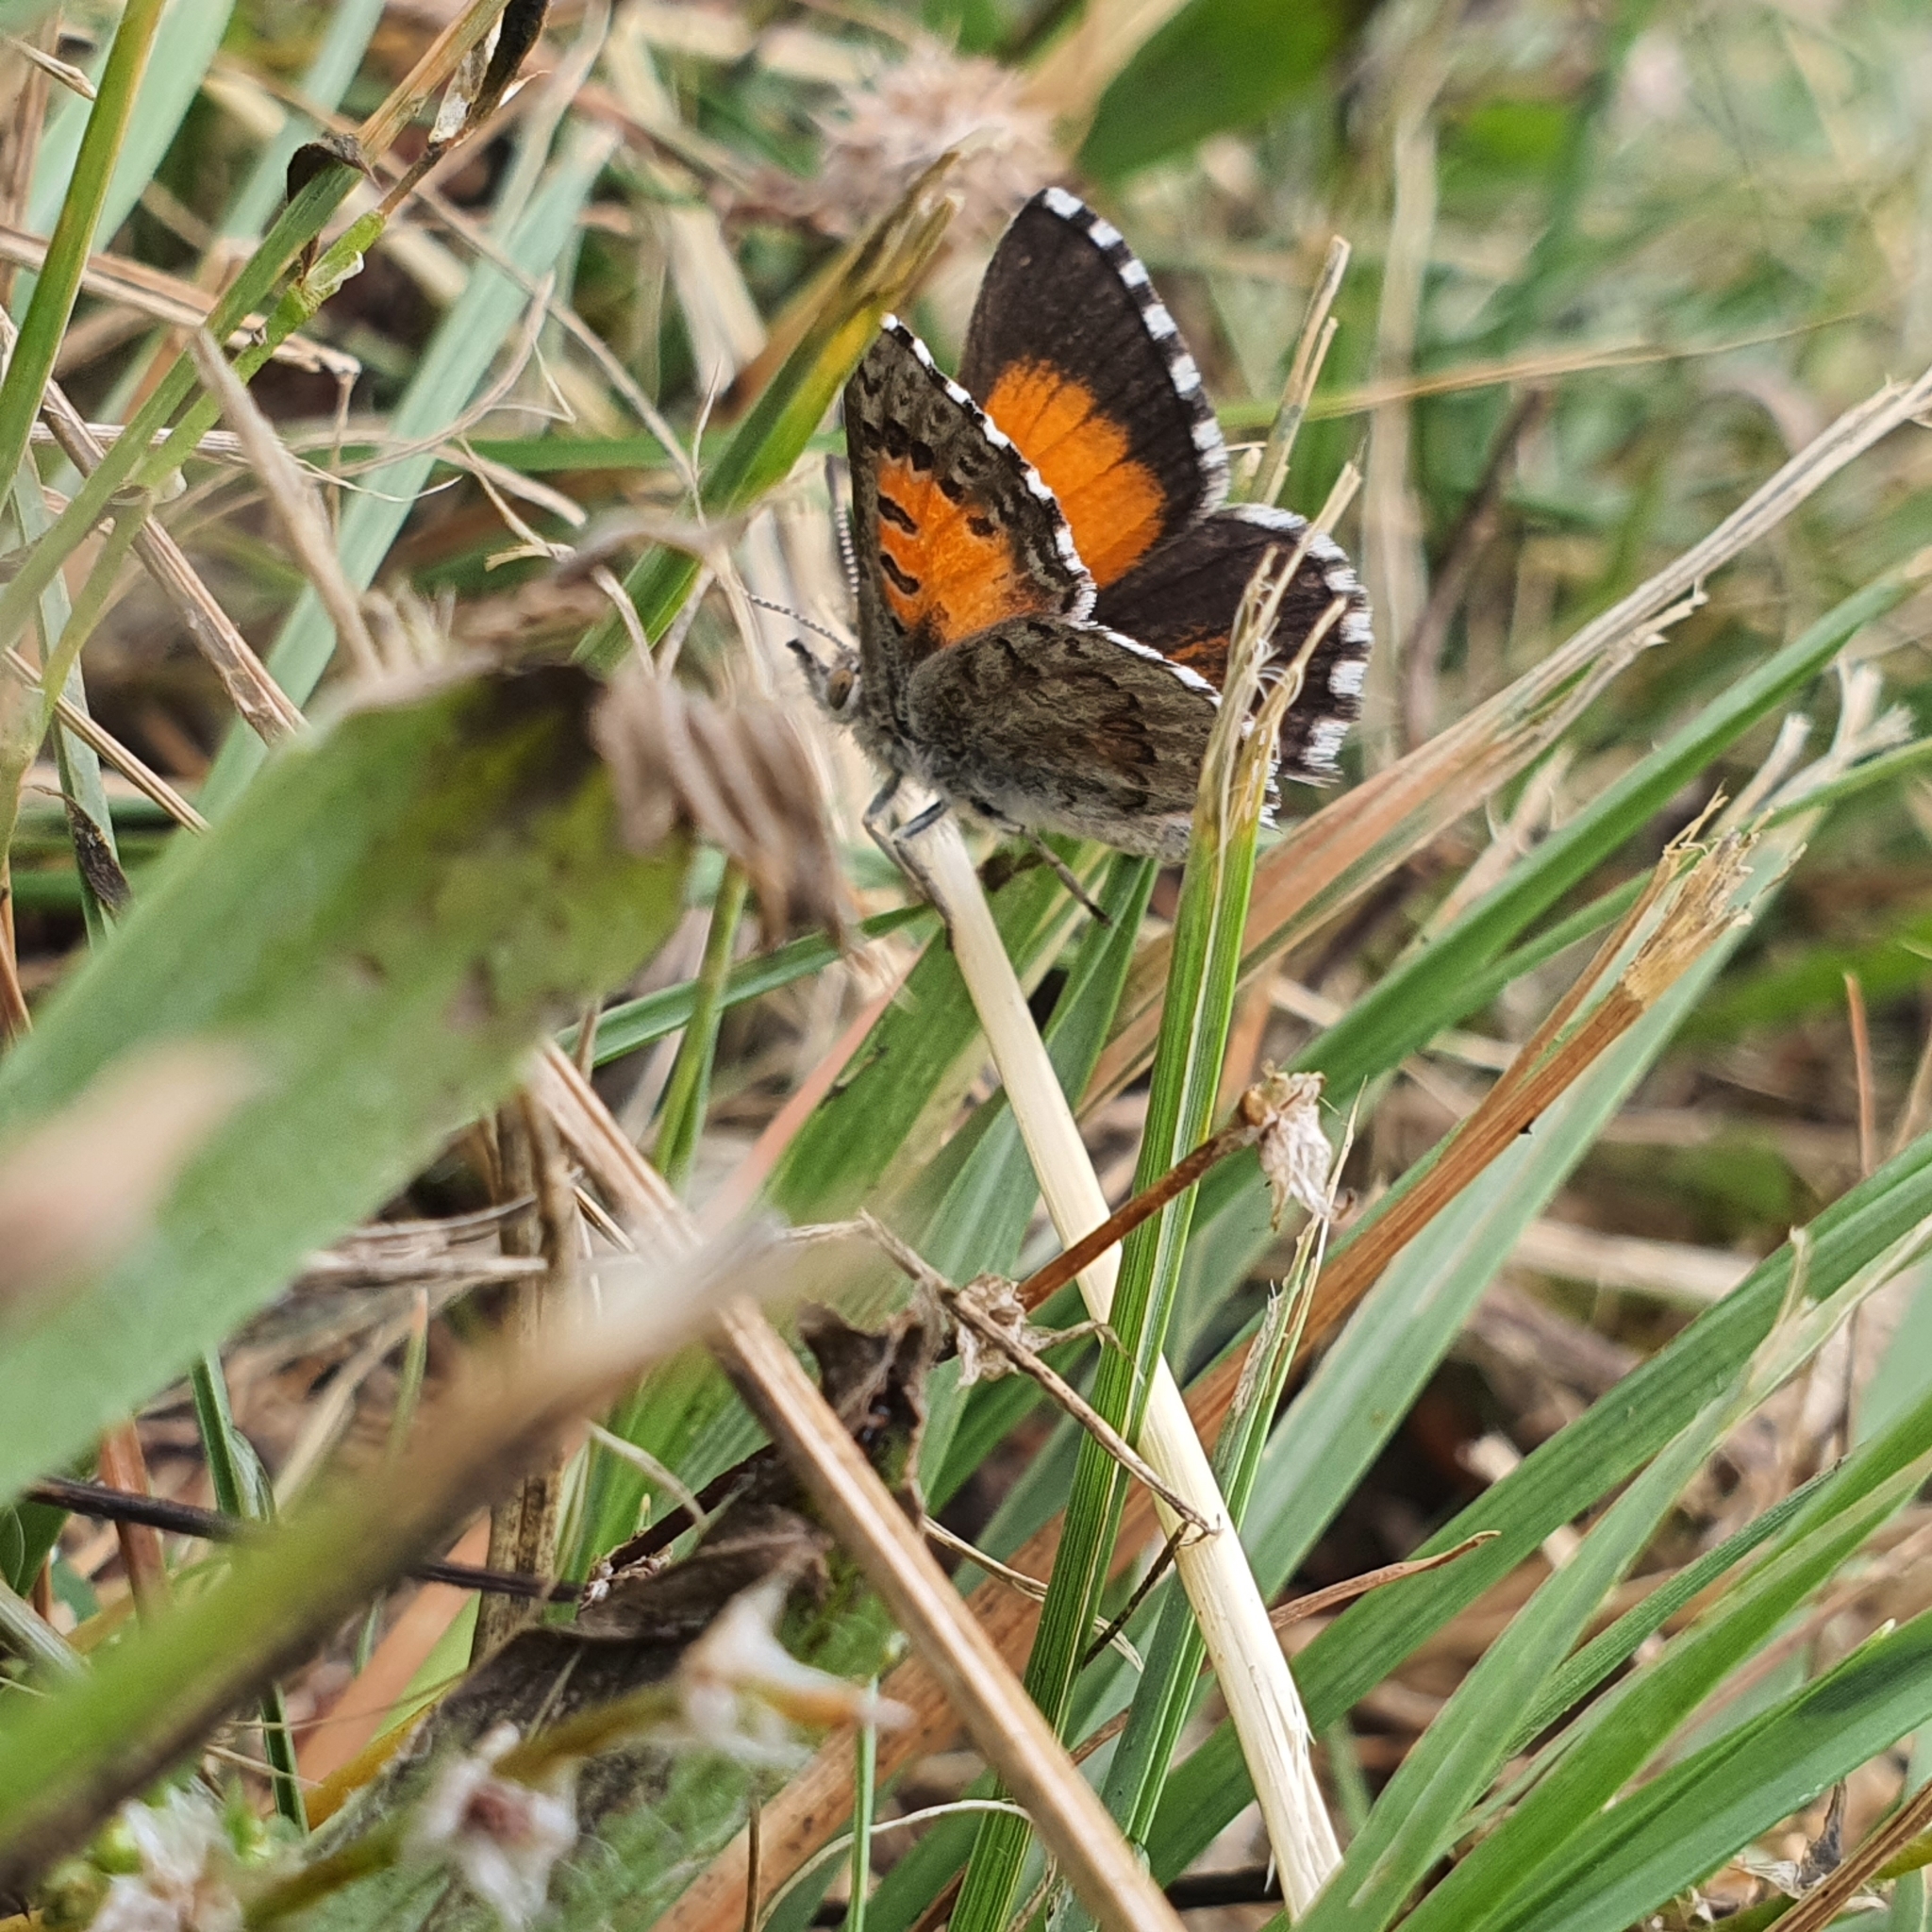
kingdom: Animalia
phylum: Arthropoda
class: Insecta
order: Lepidoptera
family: Lycaenidae
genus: Lucia
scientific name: Lucia limbaria
